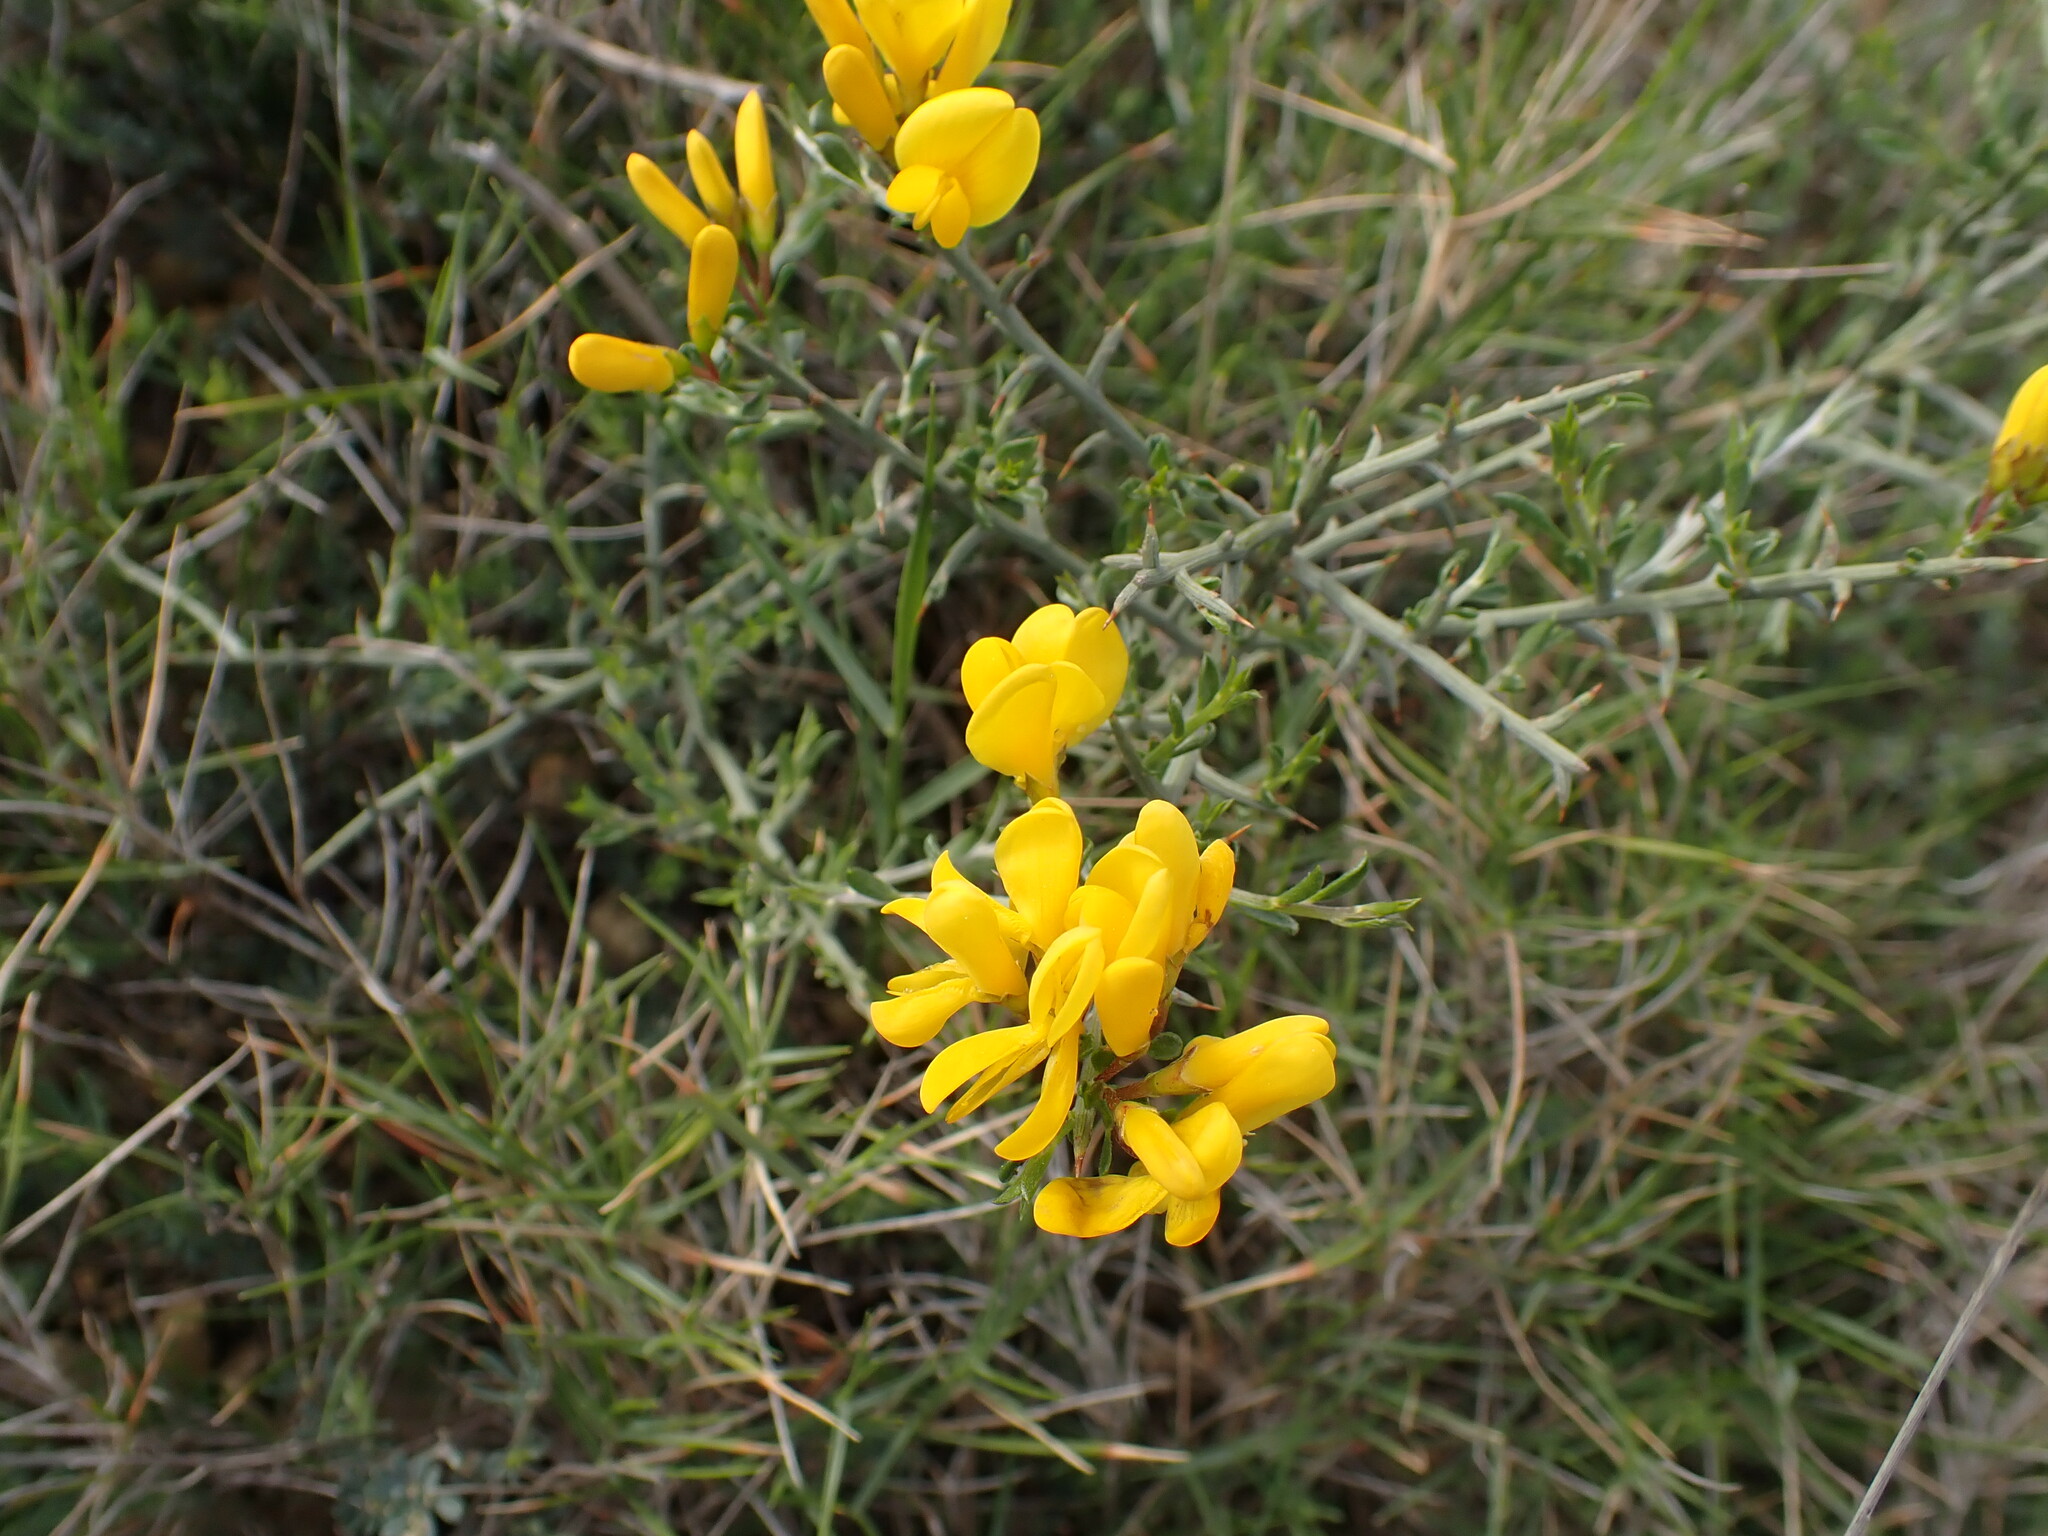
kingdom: Plantae
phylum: Tracheophyta
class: Magnoliopsida
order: Fabales
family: Fabaceae
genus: Genista
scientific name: Genista scorpius
